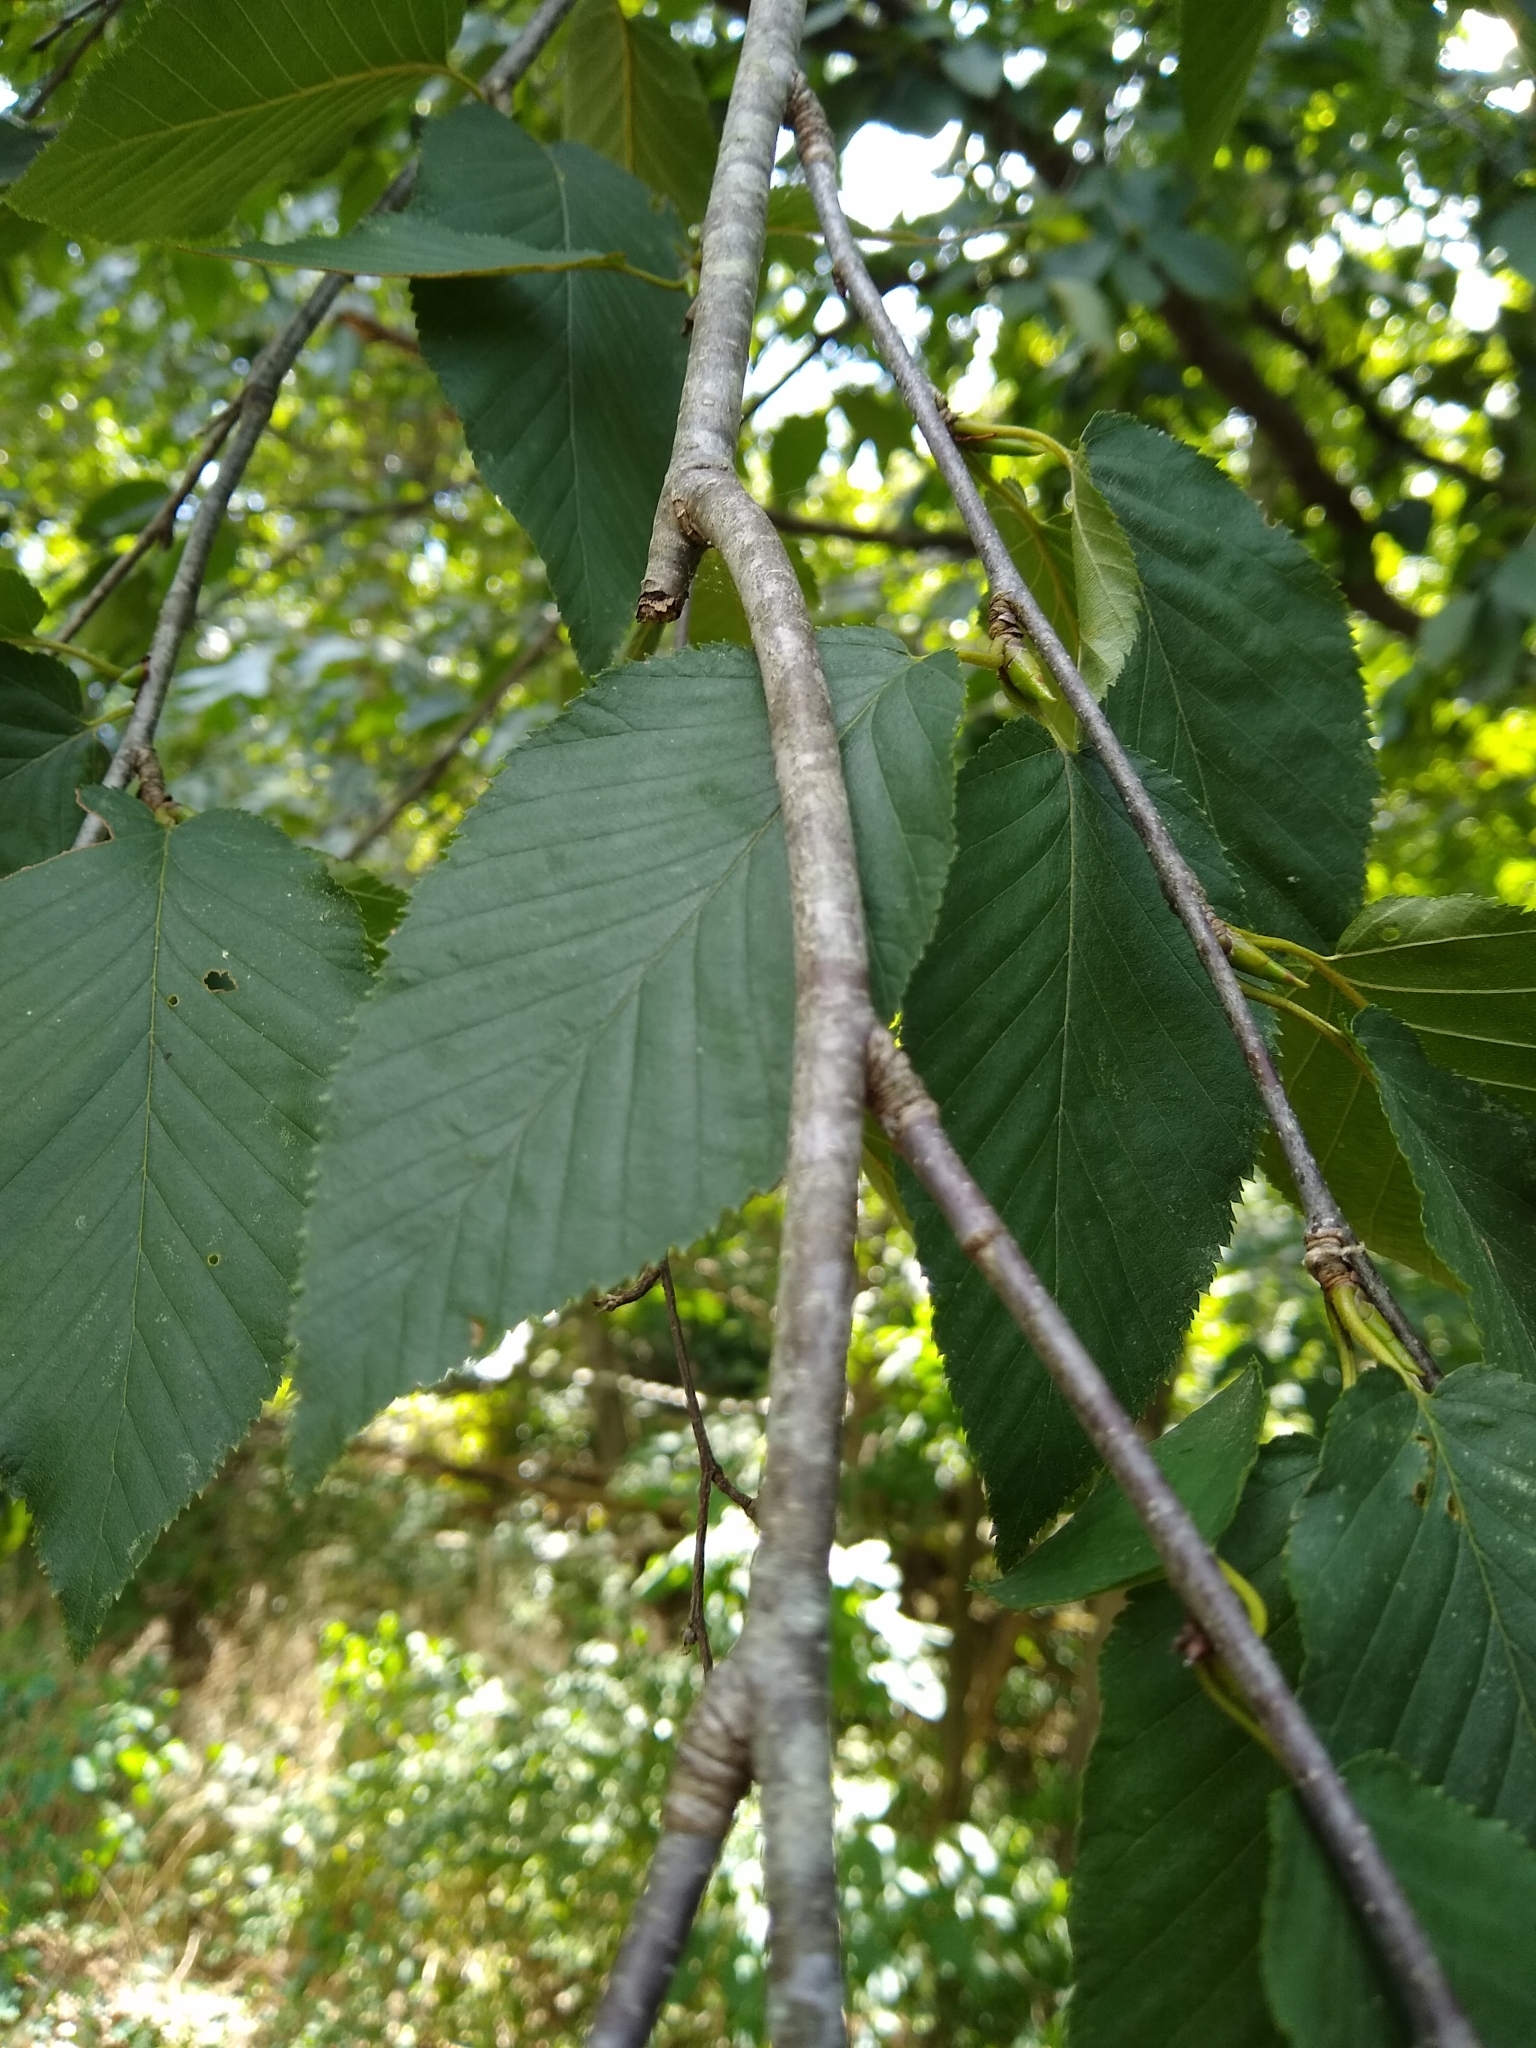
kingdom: Plantae
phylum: Tracheophyta
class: Magnoliopsida
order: Fagales
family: Betulaceae
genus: Betula
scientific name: Betula lenta
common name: Black birch
